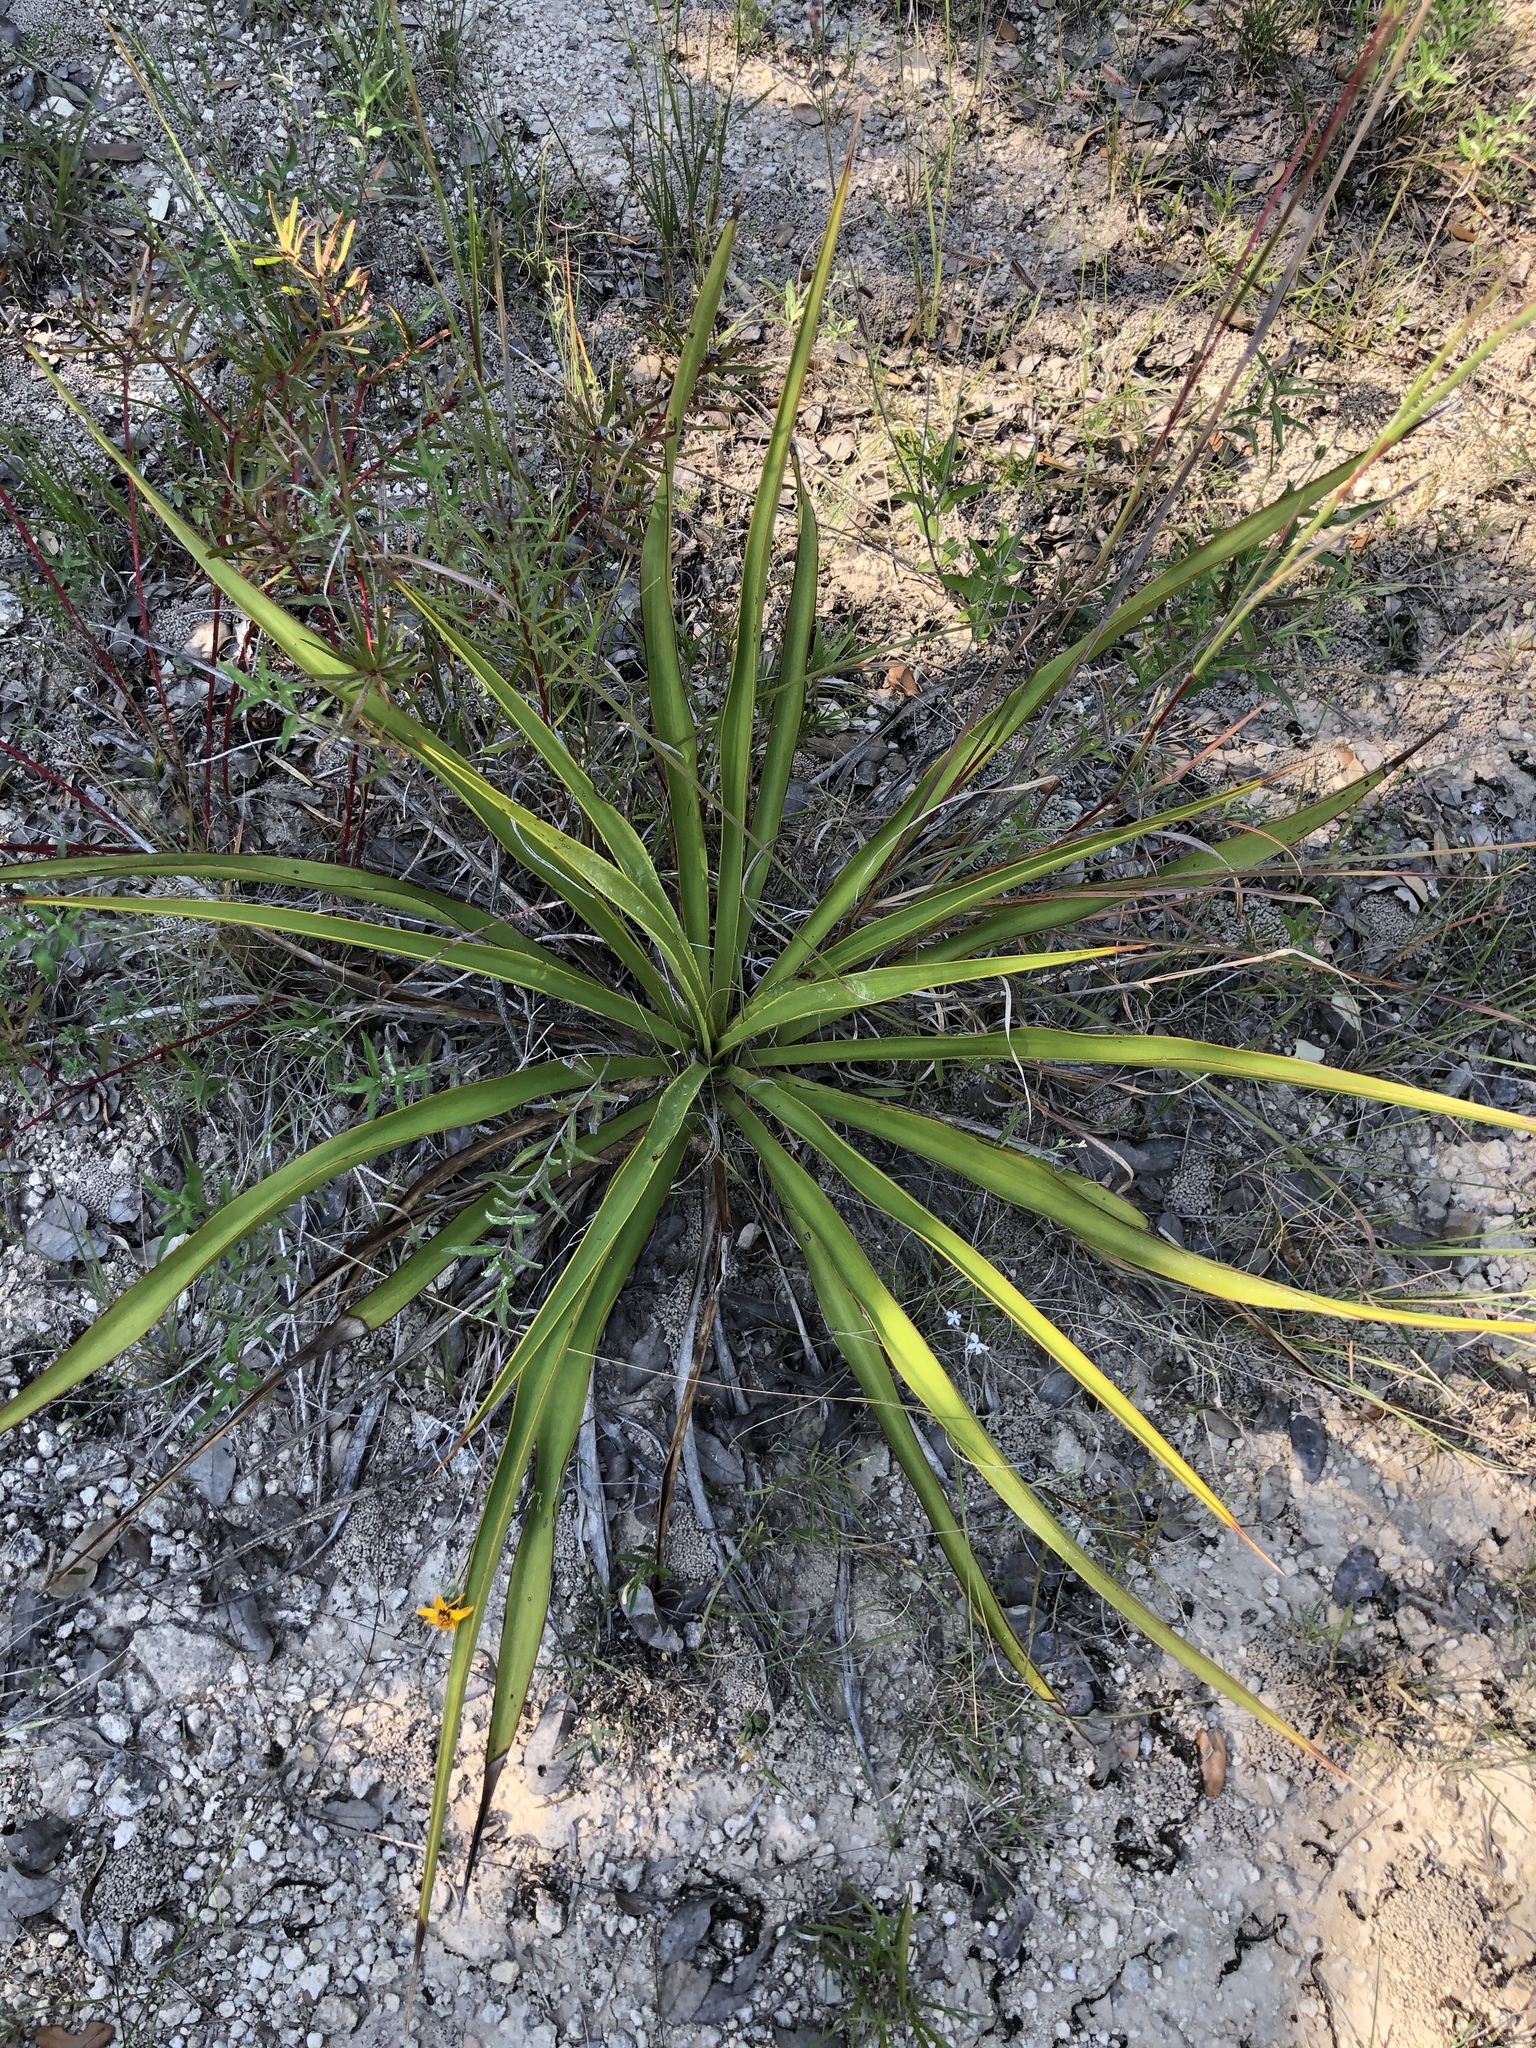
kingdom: Plantae
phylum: Tracheophyta
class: Liliopsida
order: Asparagales
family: Asparagaceae
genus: Yucca
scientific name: Yucca rupicola
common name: Twisted-leaf spanish-dagger
